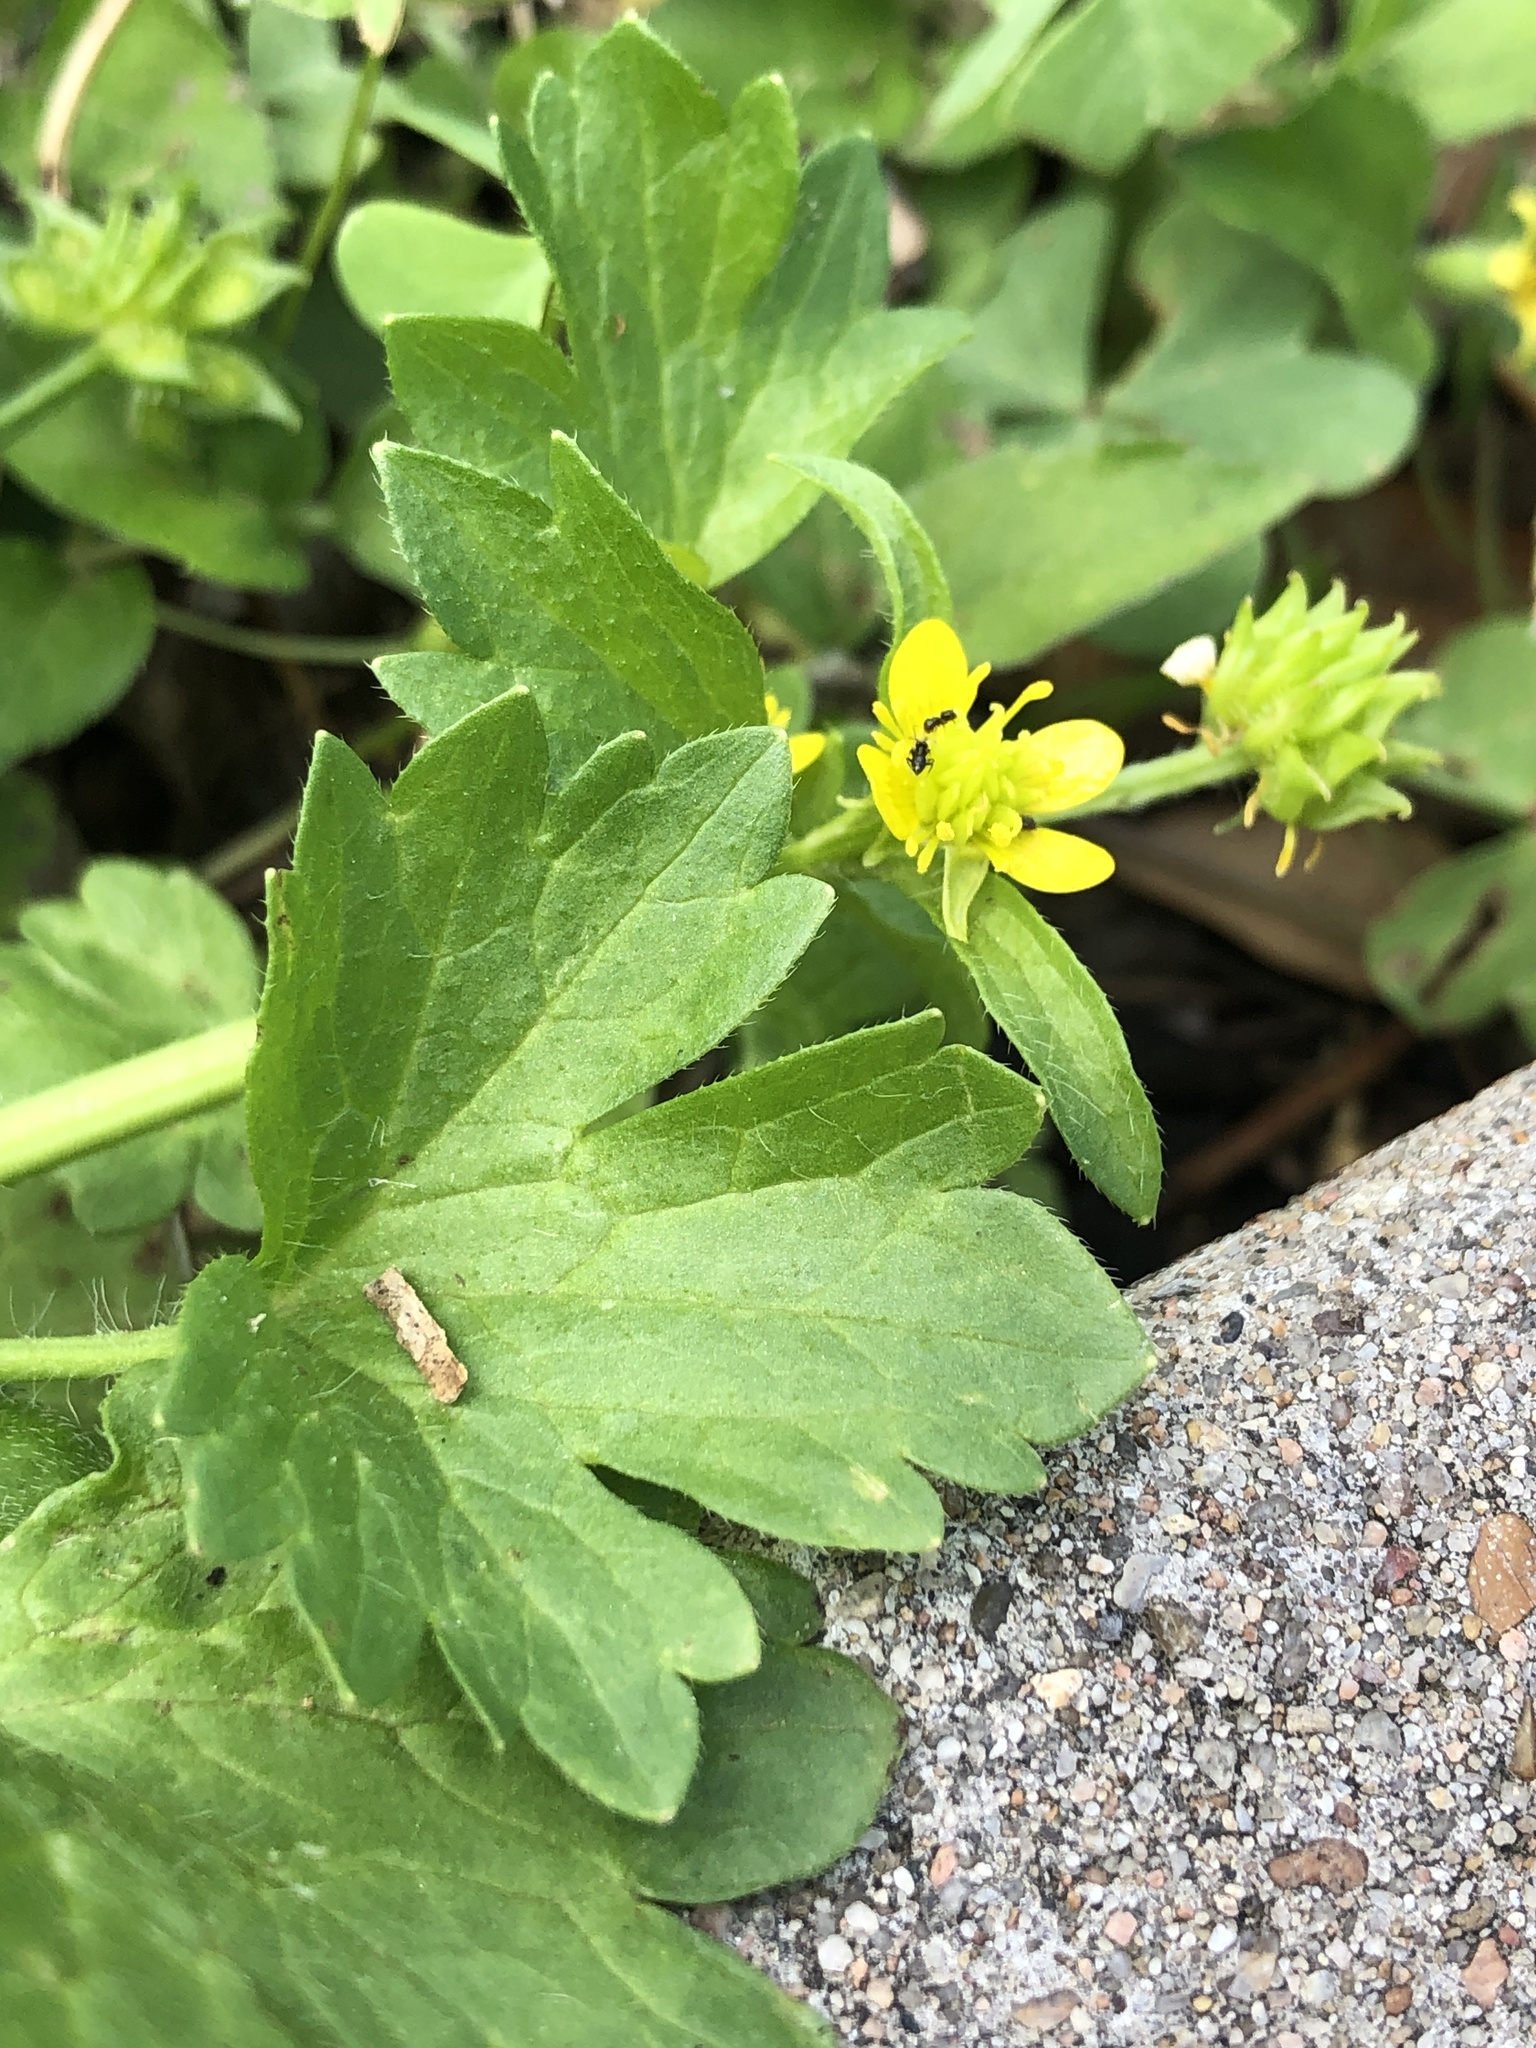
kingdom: Plantae
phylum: Tracheophyta
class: Magnoliopsida
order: Ranunculales
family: Ranunculaceae
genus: Ranunculus
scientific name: Ranunculus muricatus
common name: Rough-fruited buttercup
